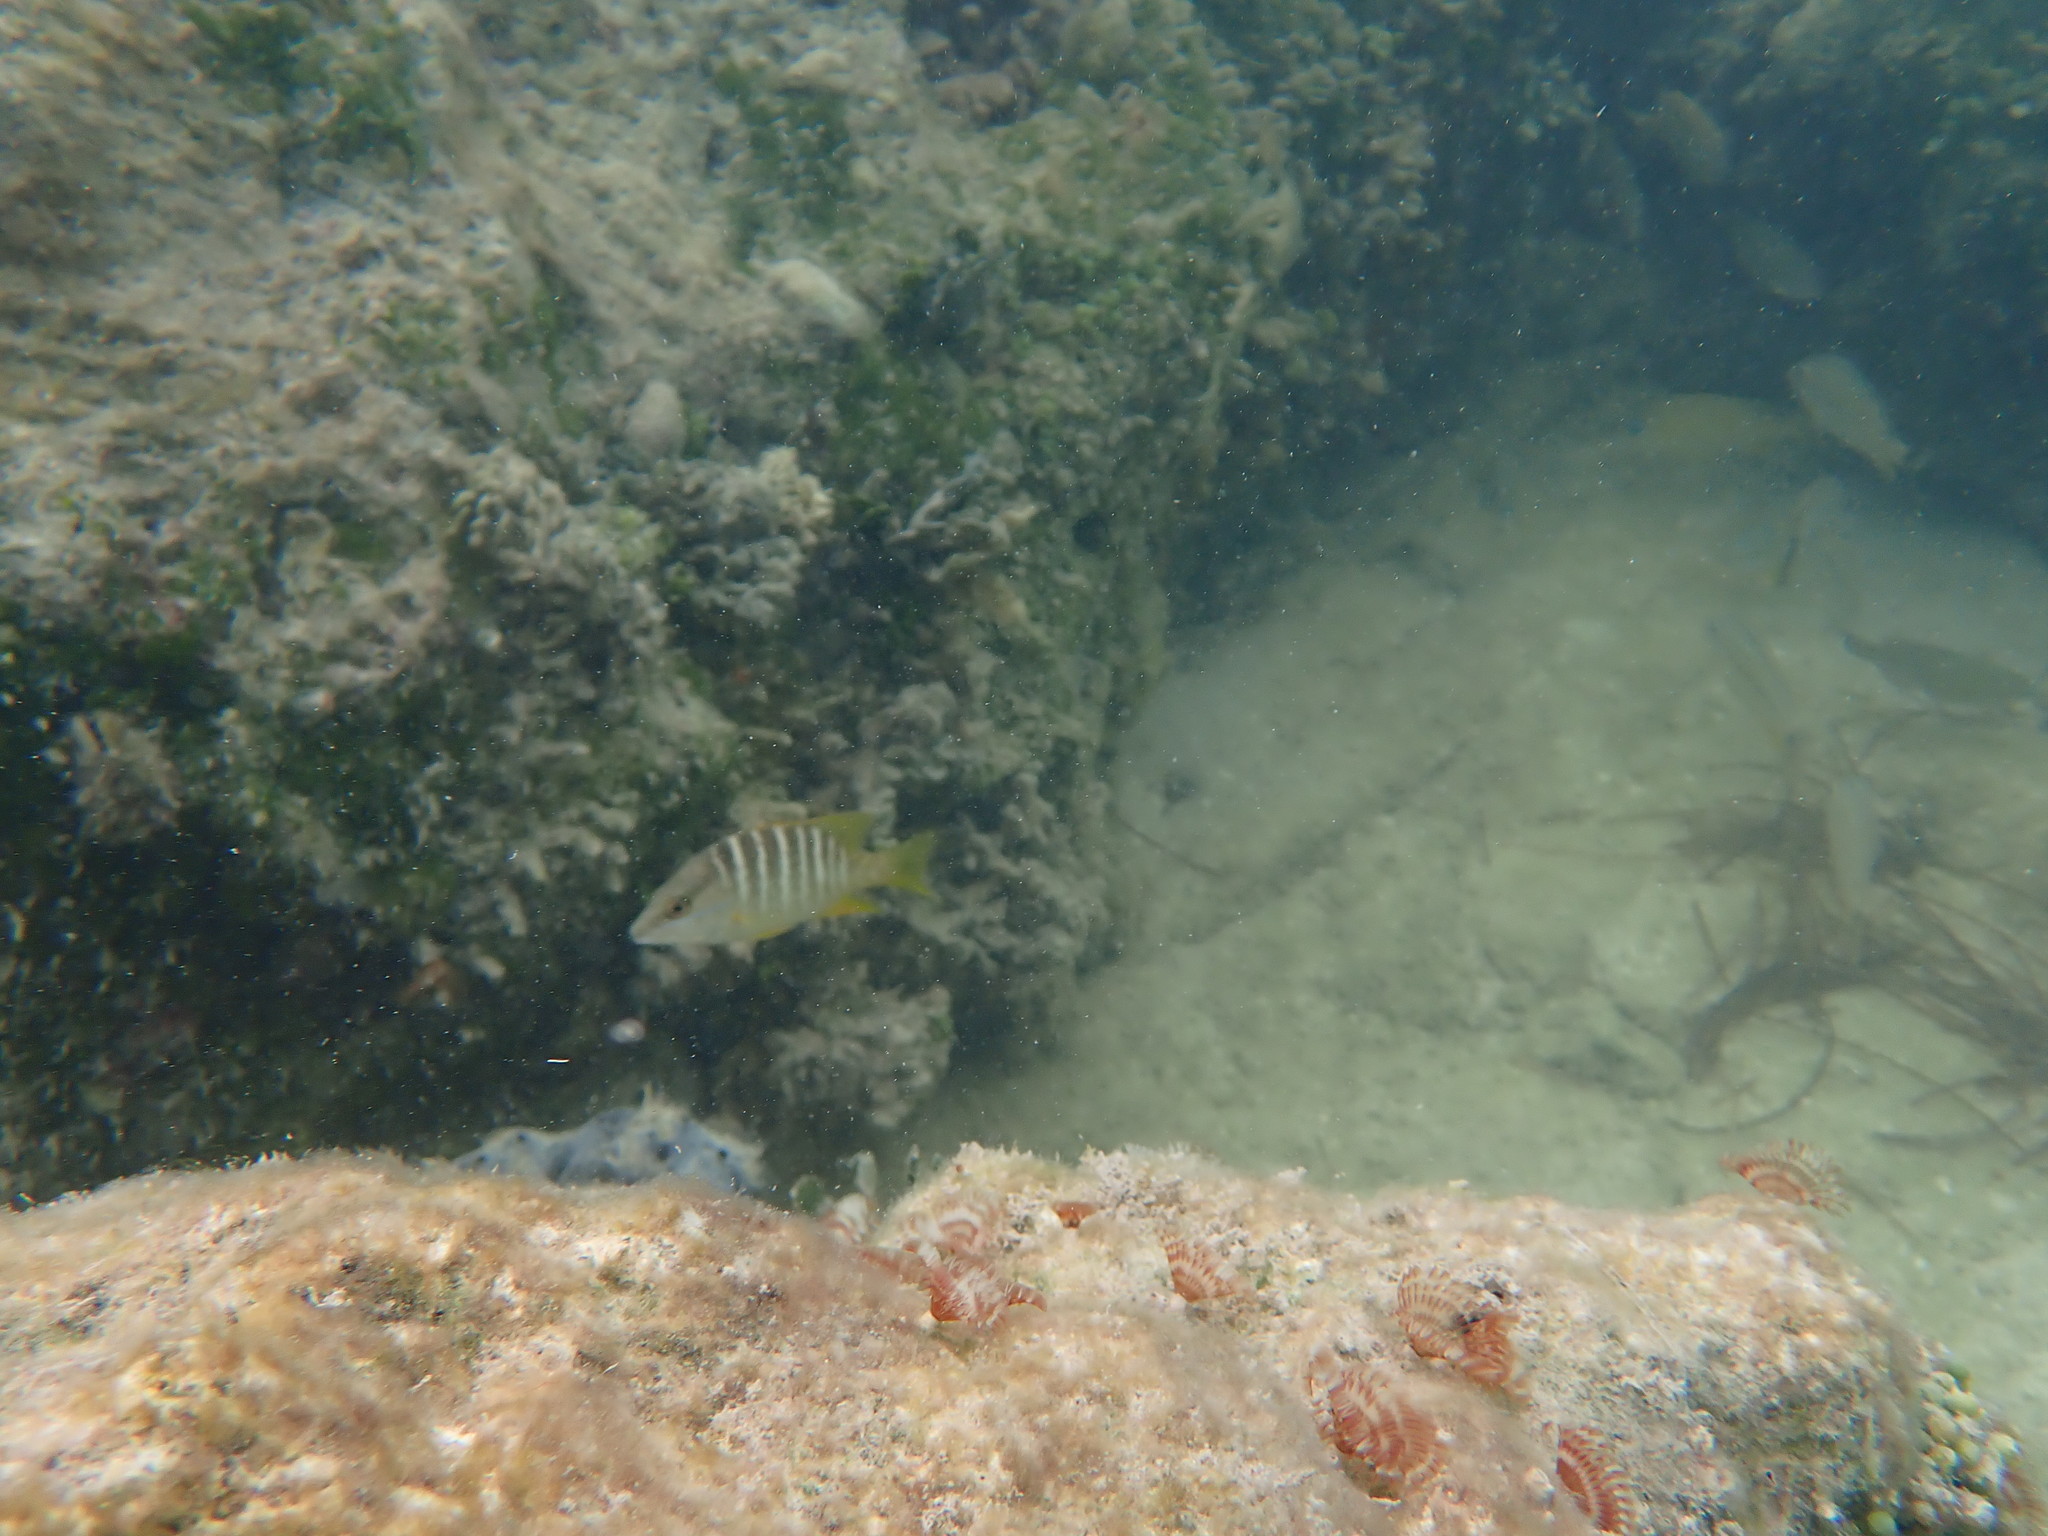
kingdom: Animalia
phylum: Chordata
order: Perciformes
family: Lutjanidae
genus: Lutjanus
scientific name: Lutjanus apodus
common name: Schoolmaster
